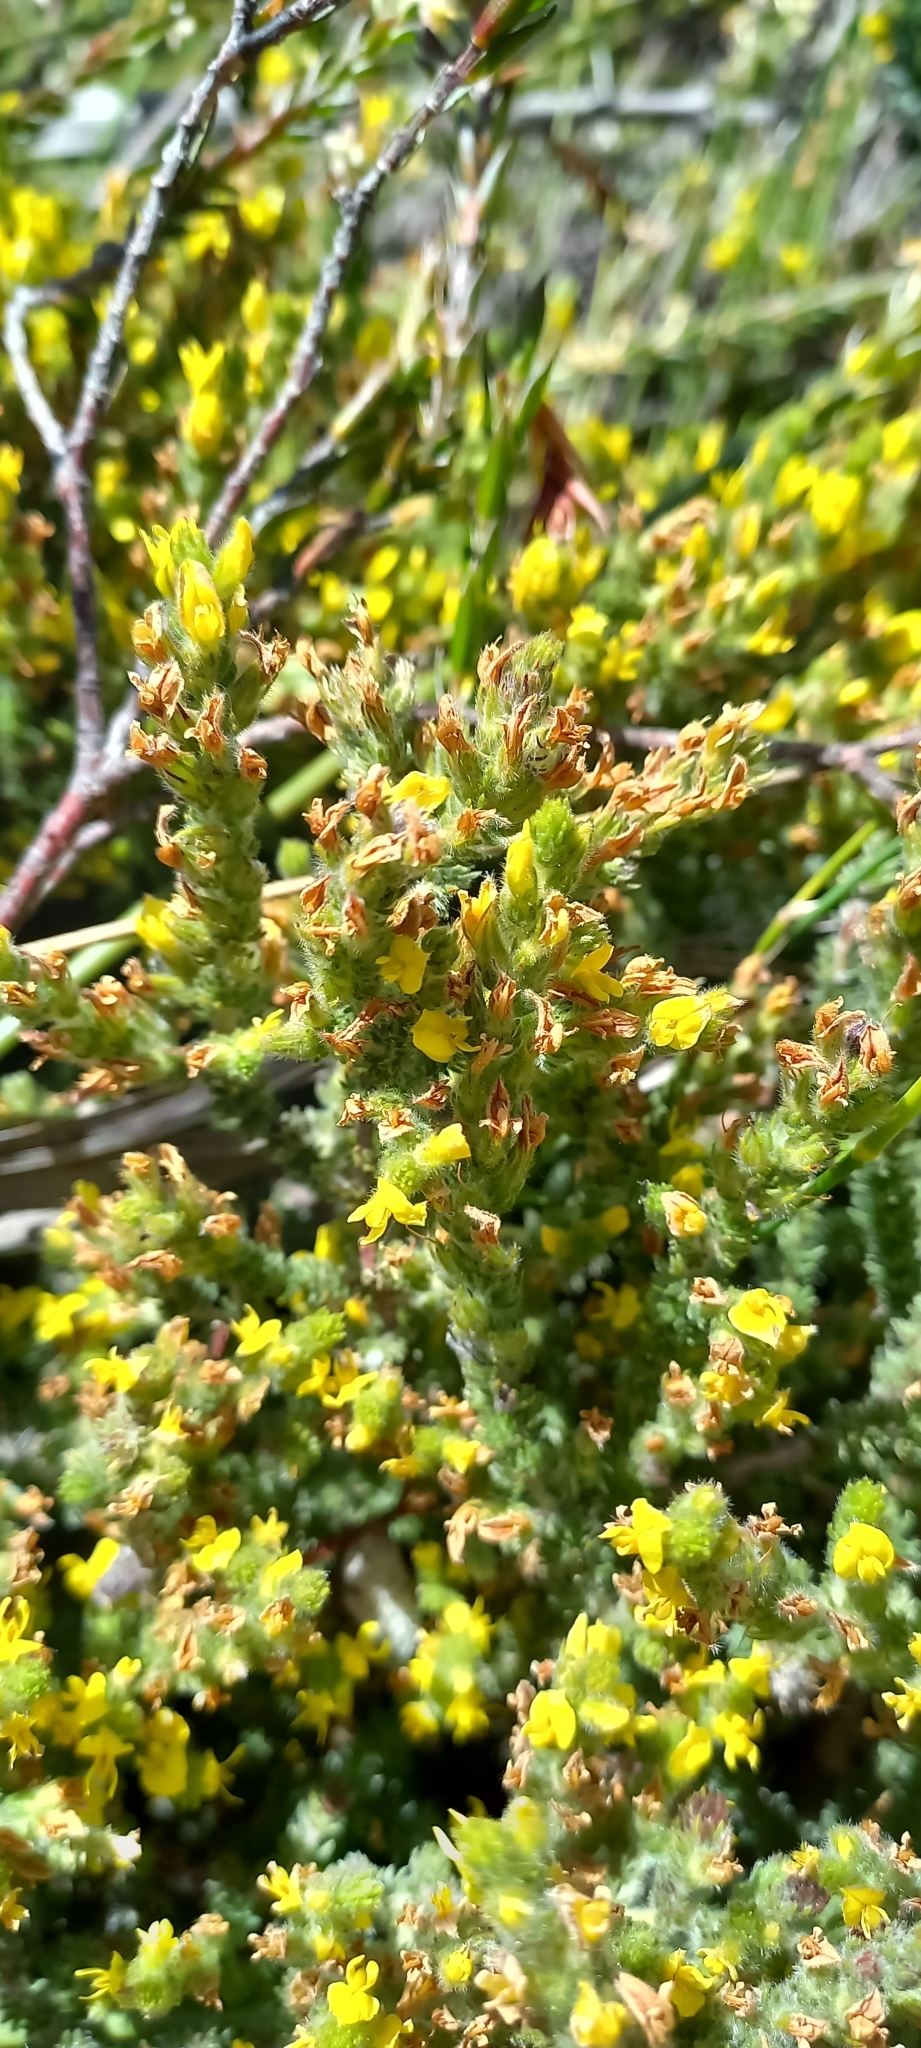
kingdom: Plantae
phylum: Tracheophyta
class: Magnoliopsida
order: Fabales
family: Fabaceae
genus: Aspalathus
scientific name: Aspalathus ericifolia
